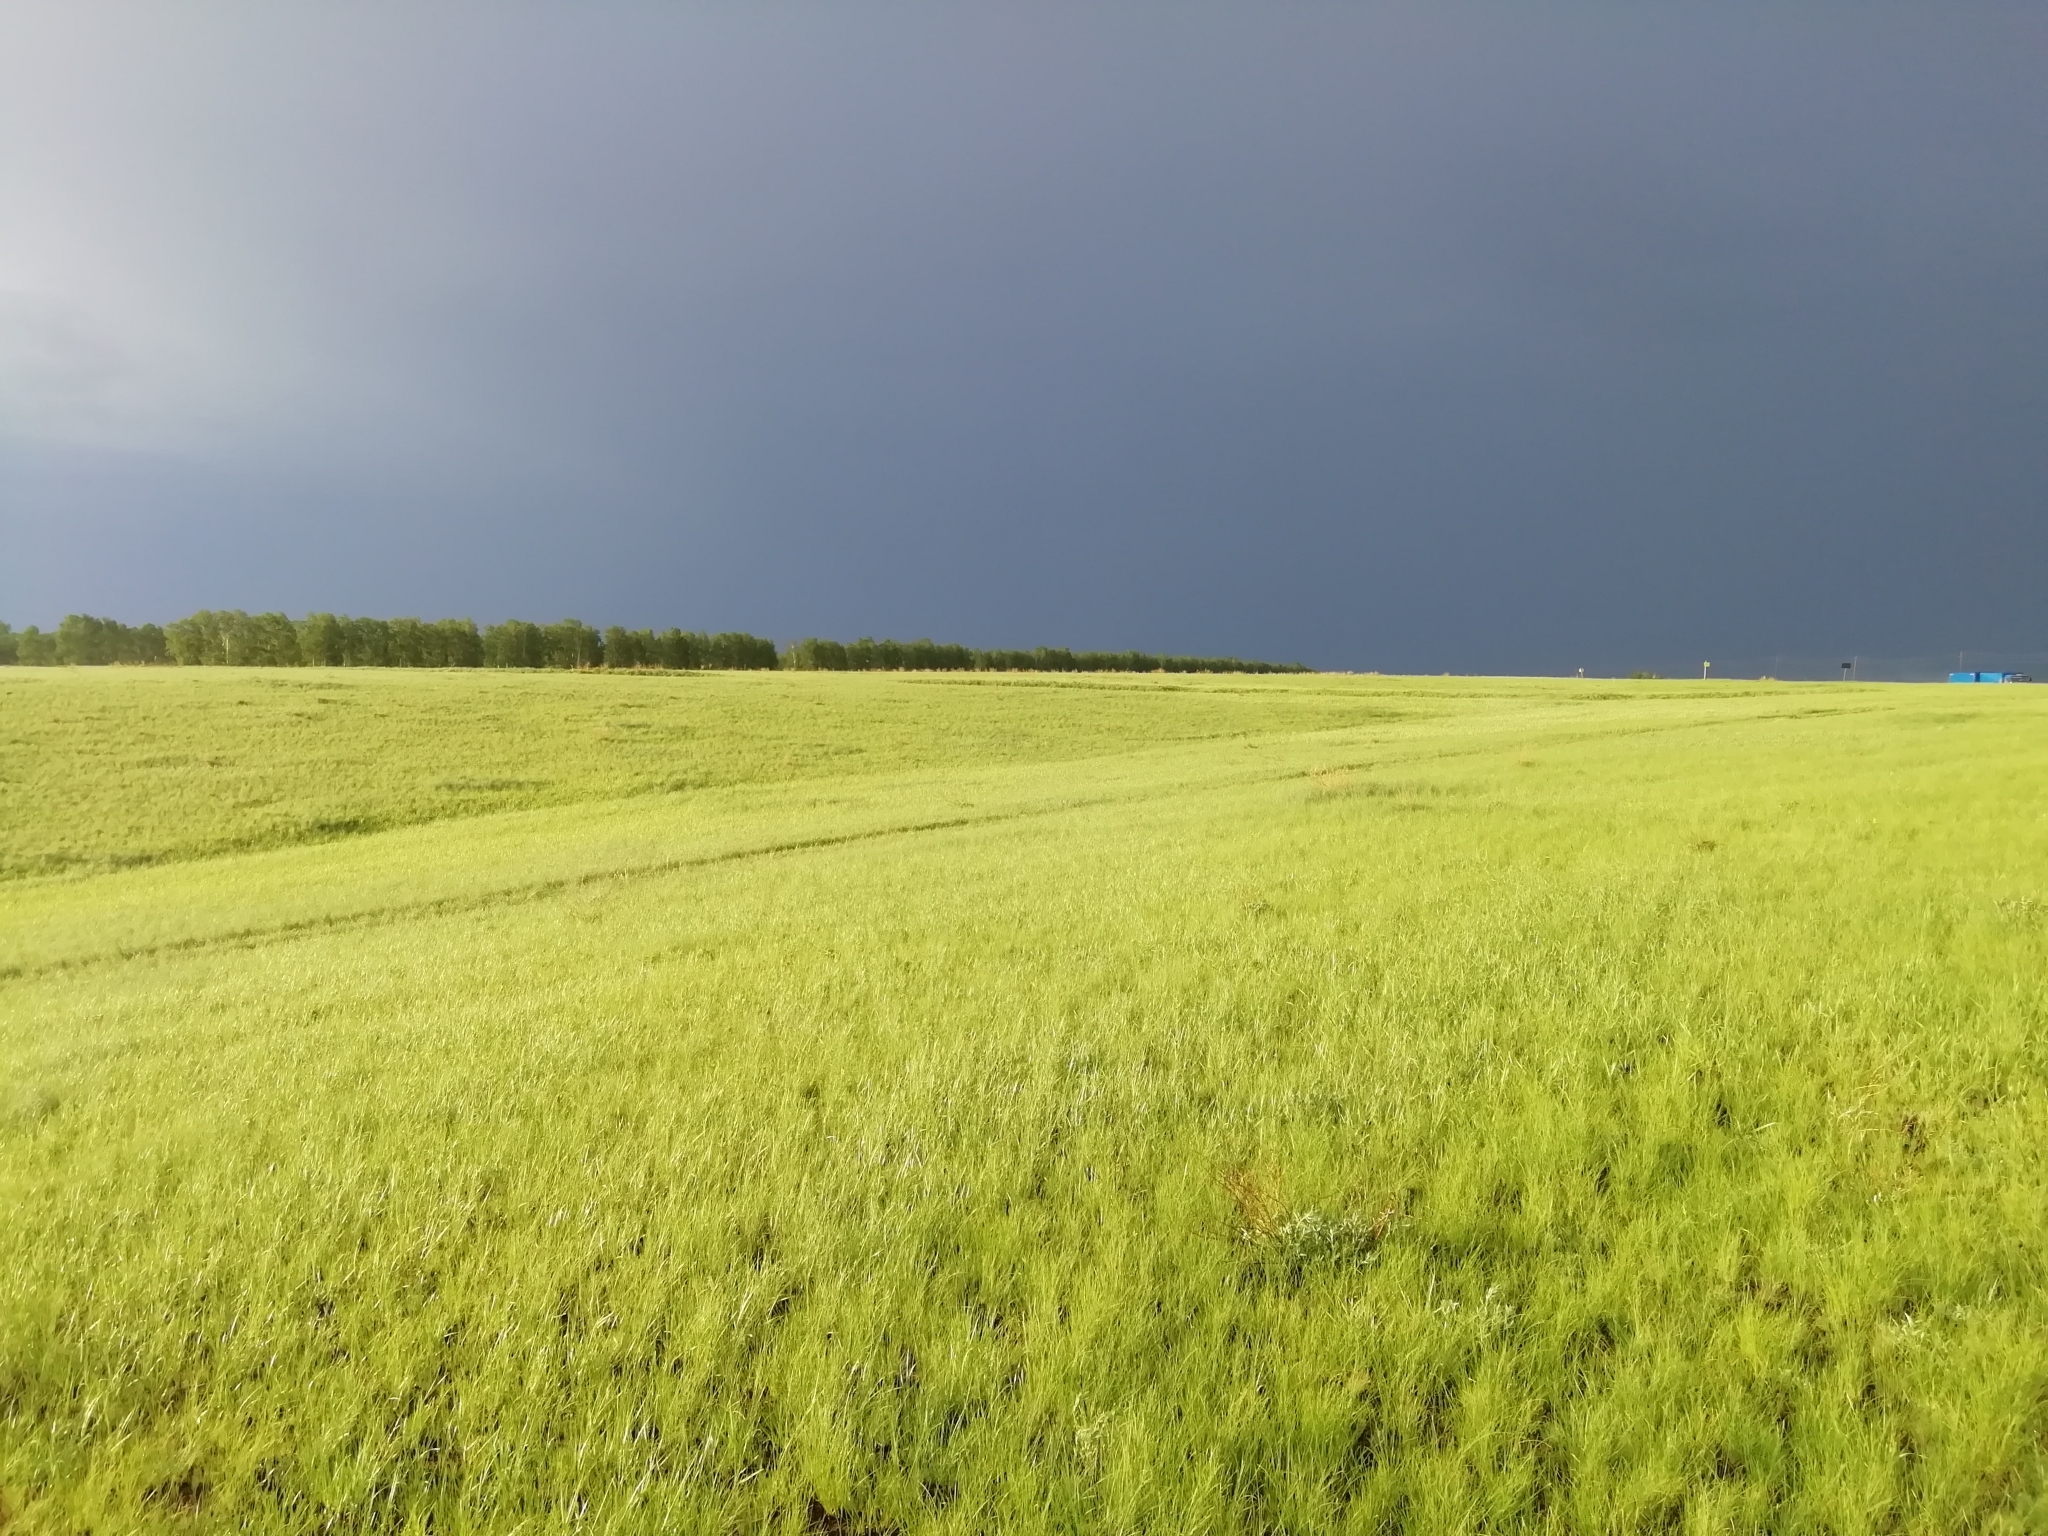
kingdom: Animalia
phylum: Arthropoda
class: Insecta
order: Orthoptera
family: Acrididae
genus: Arcyptera
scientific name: Arcyptera microptera
